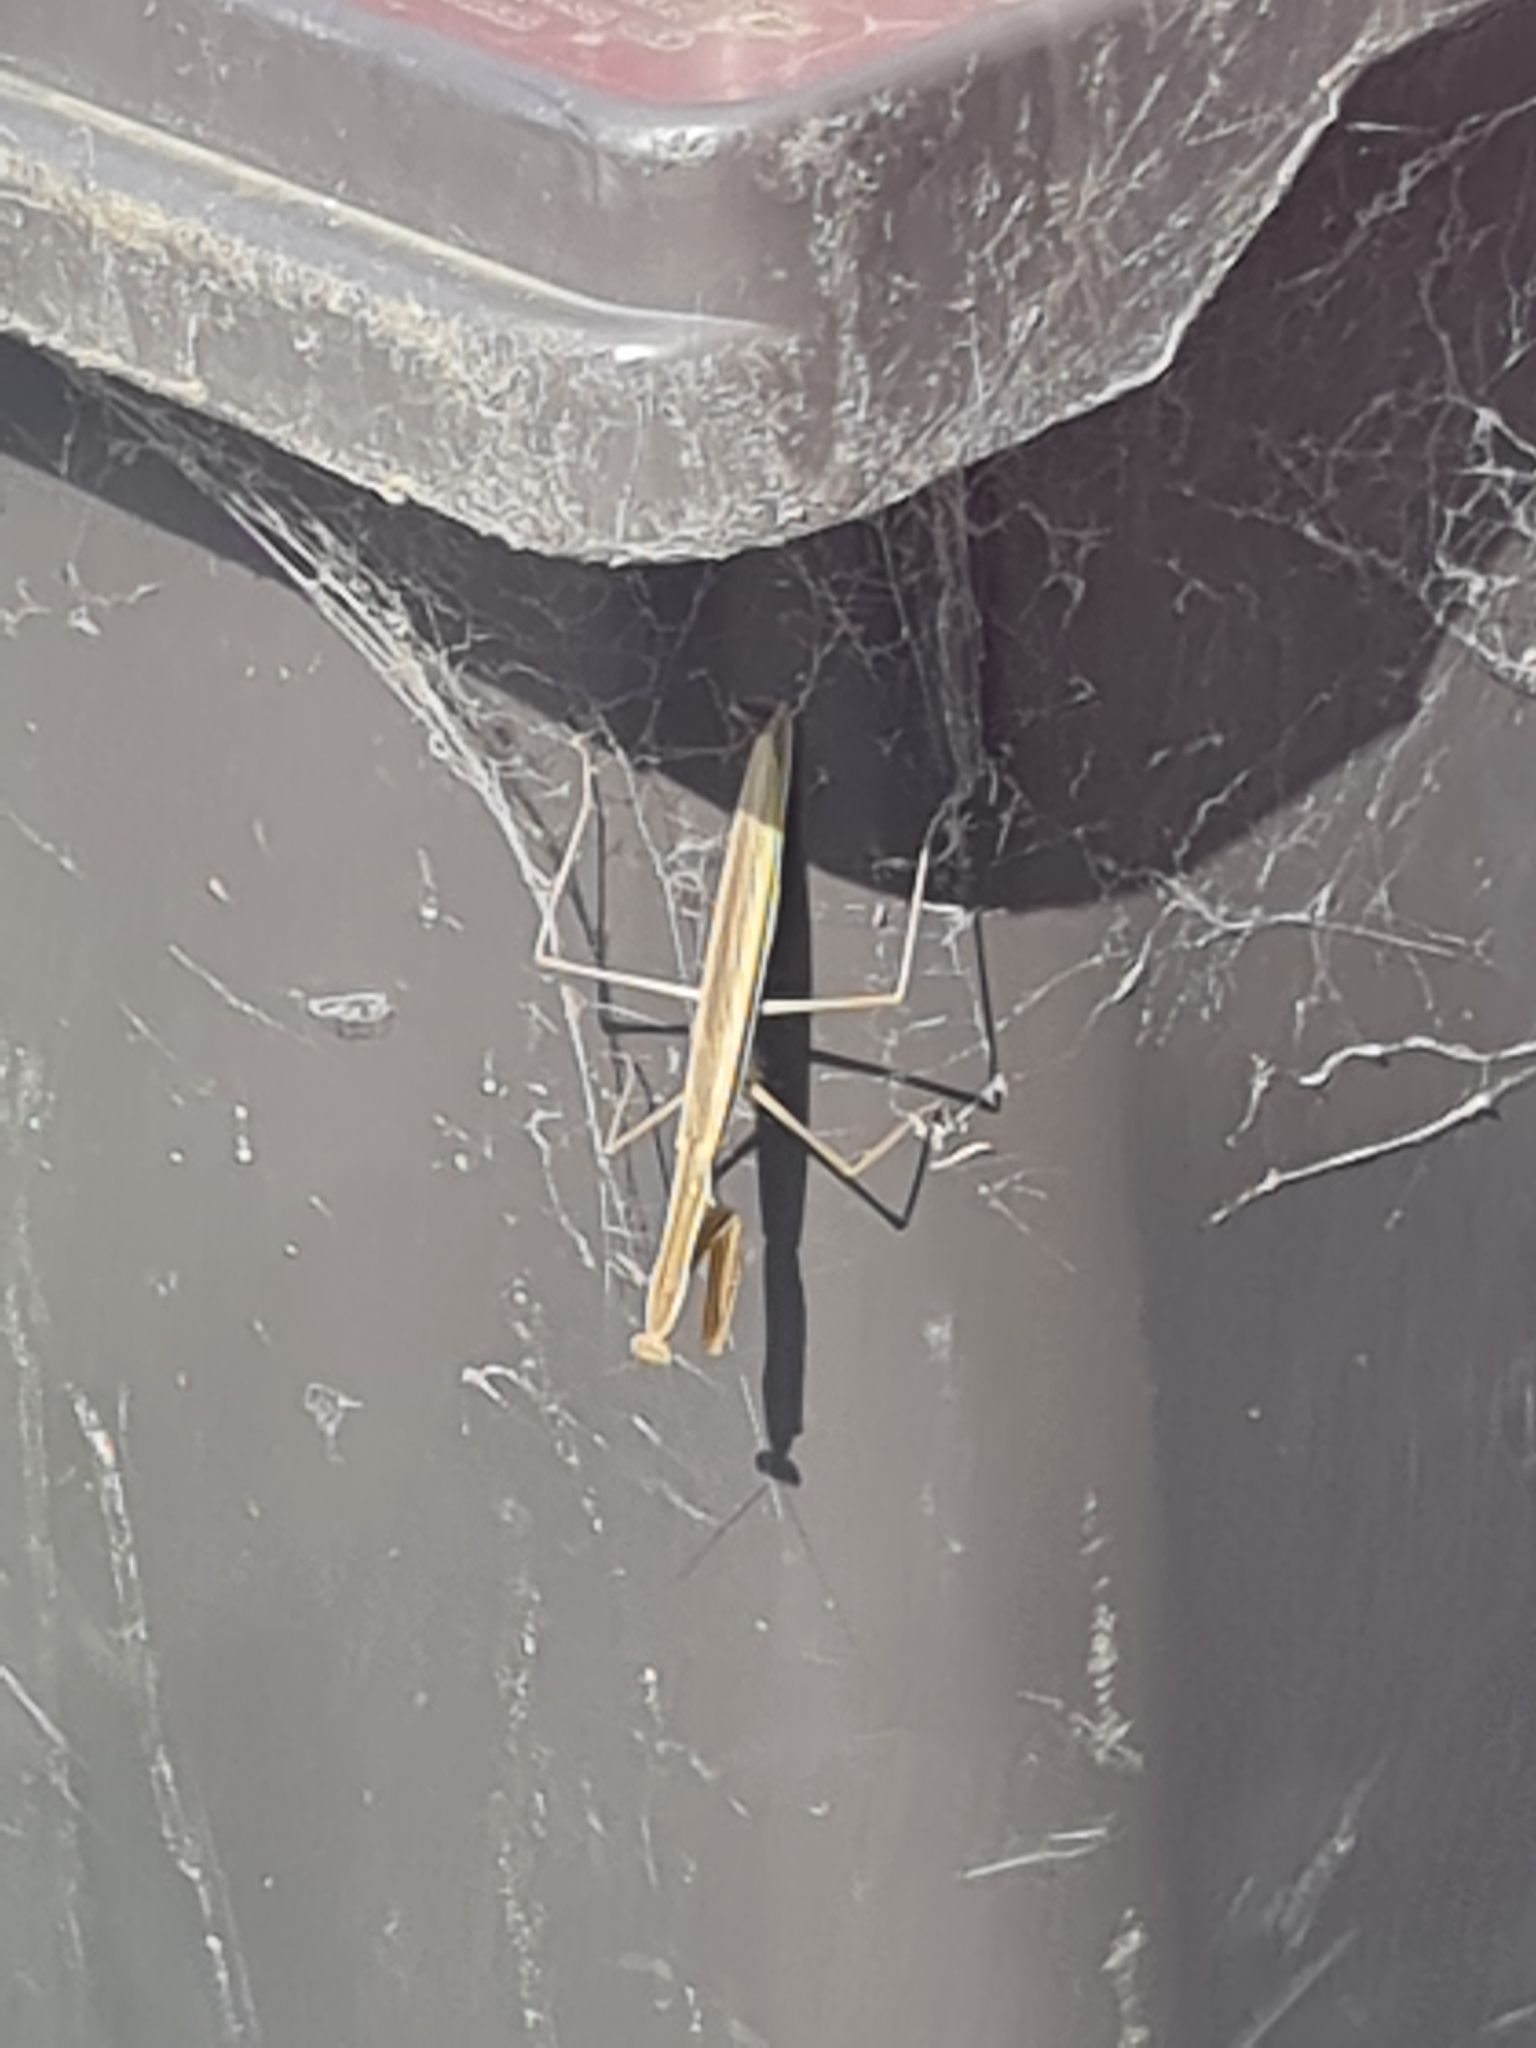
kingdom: Animalia
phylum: Arthropoda
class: Insecta
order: Mantodea
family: Mantidae
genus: Tenodera
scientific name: Tenodera australasiae
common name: Purple-winged mantis
